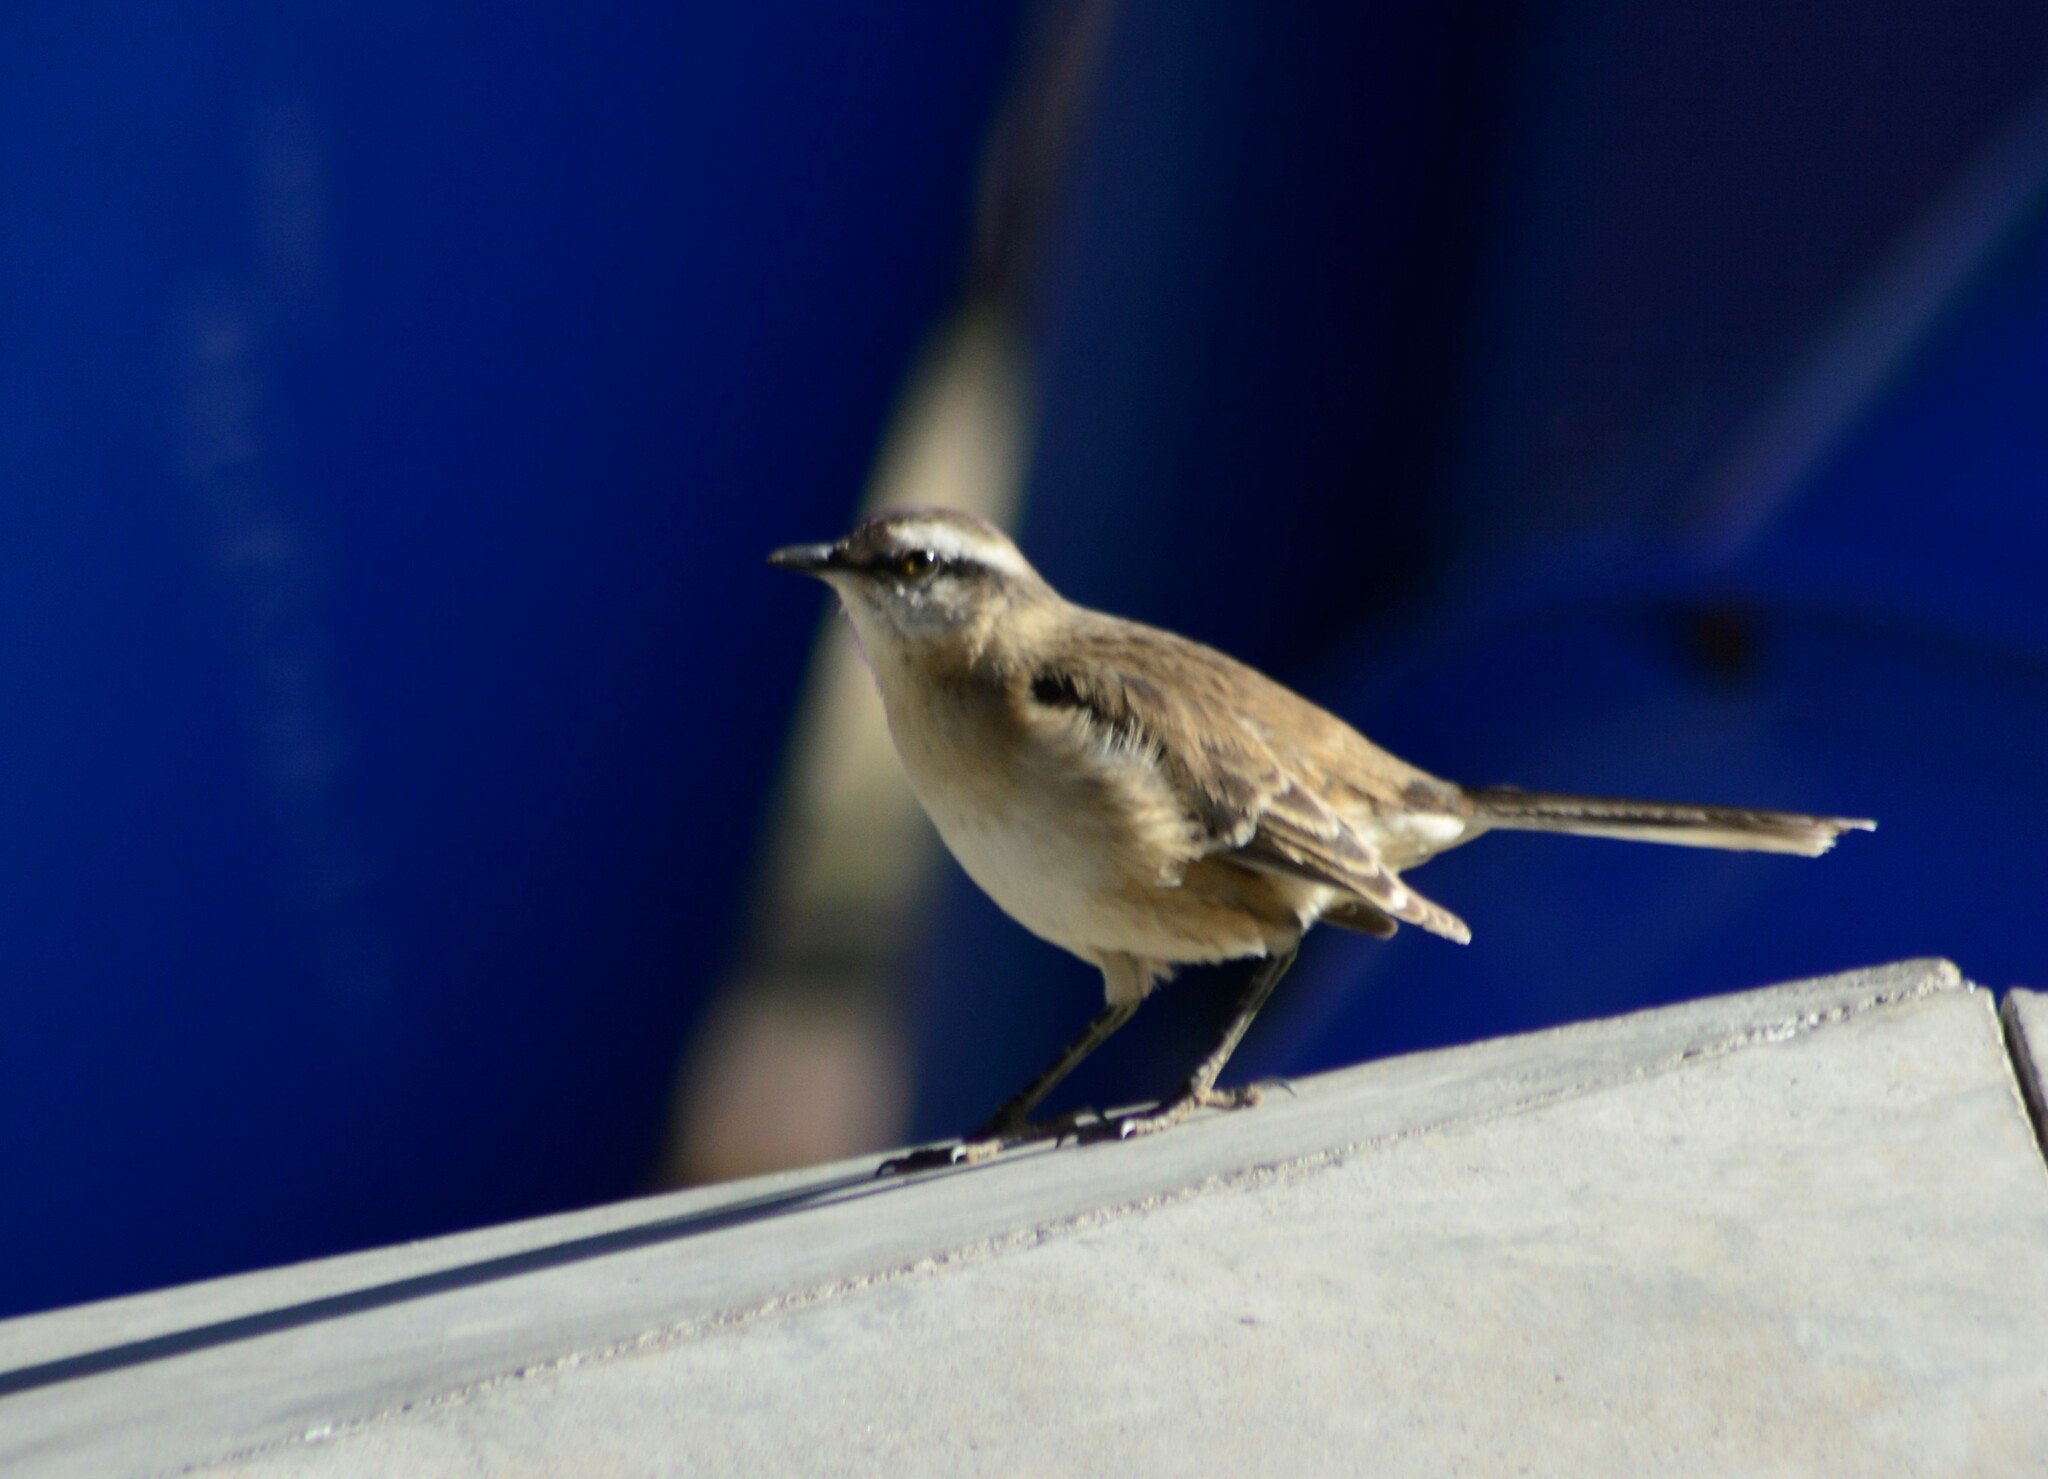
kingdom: Animalia
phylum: Chordata
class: Aves
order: Passeriformes
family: Mimidae
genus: Mimus
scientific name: Mimus saturninus
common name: Chalk-browed mockingbird
